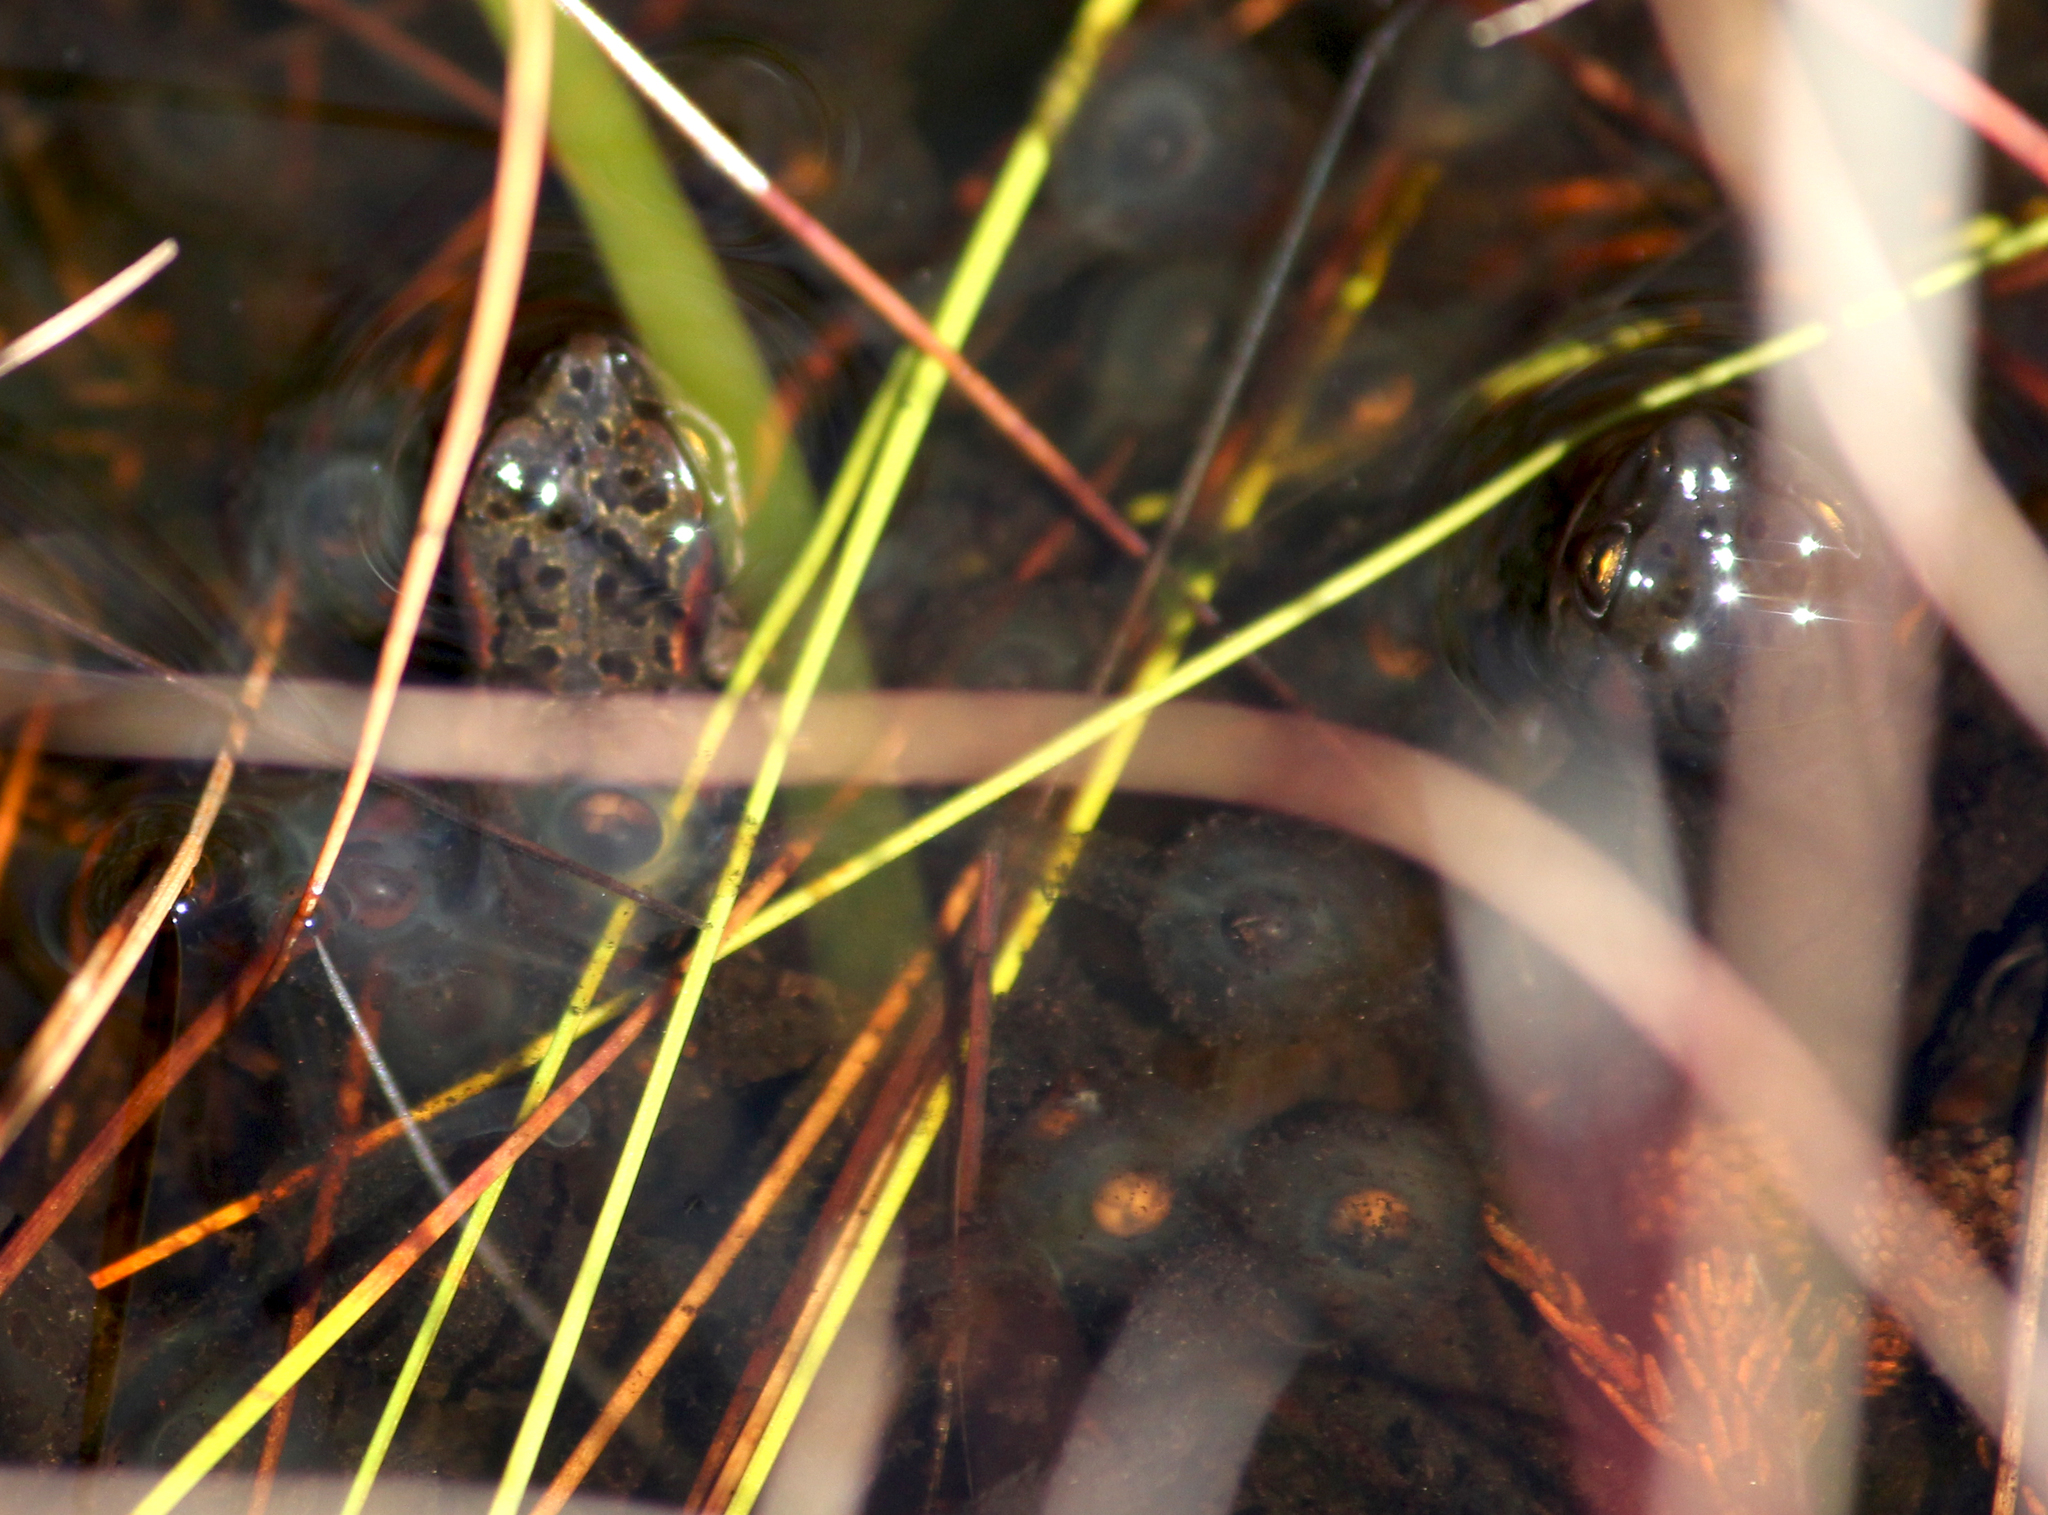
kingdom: Animalia
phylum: Chordata
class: Amphibia
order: Anura
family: Bufonidae
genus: Capensibufo
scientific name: Capensibufo rosei
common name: Cape mountain toad
